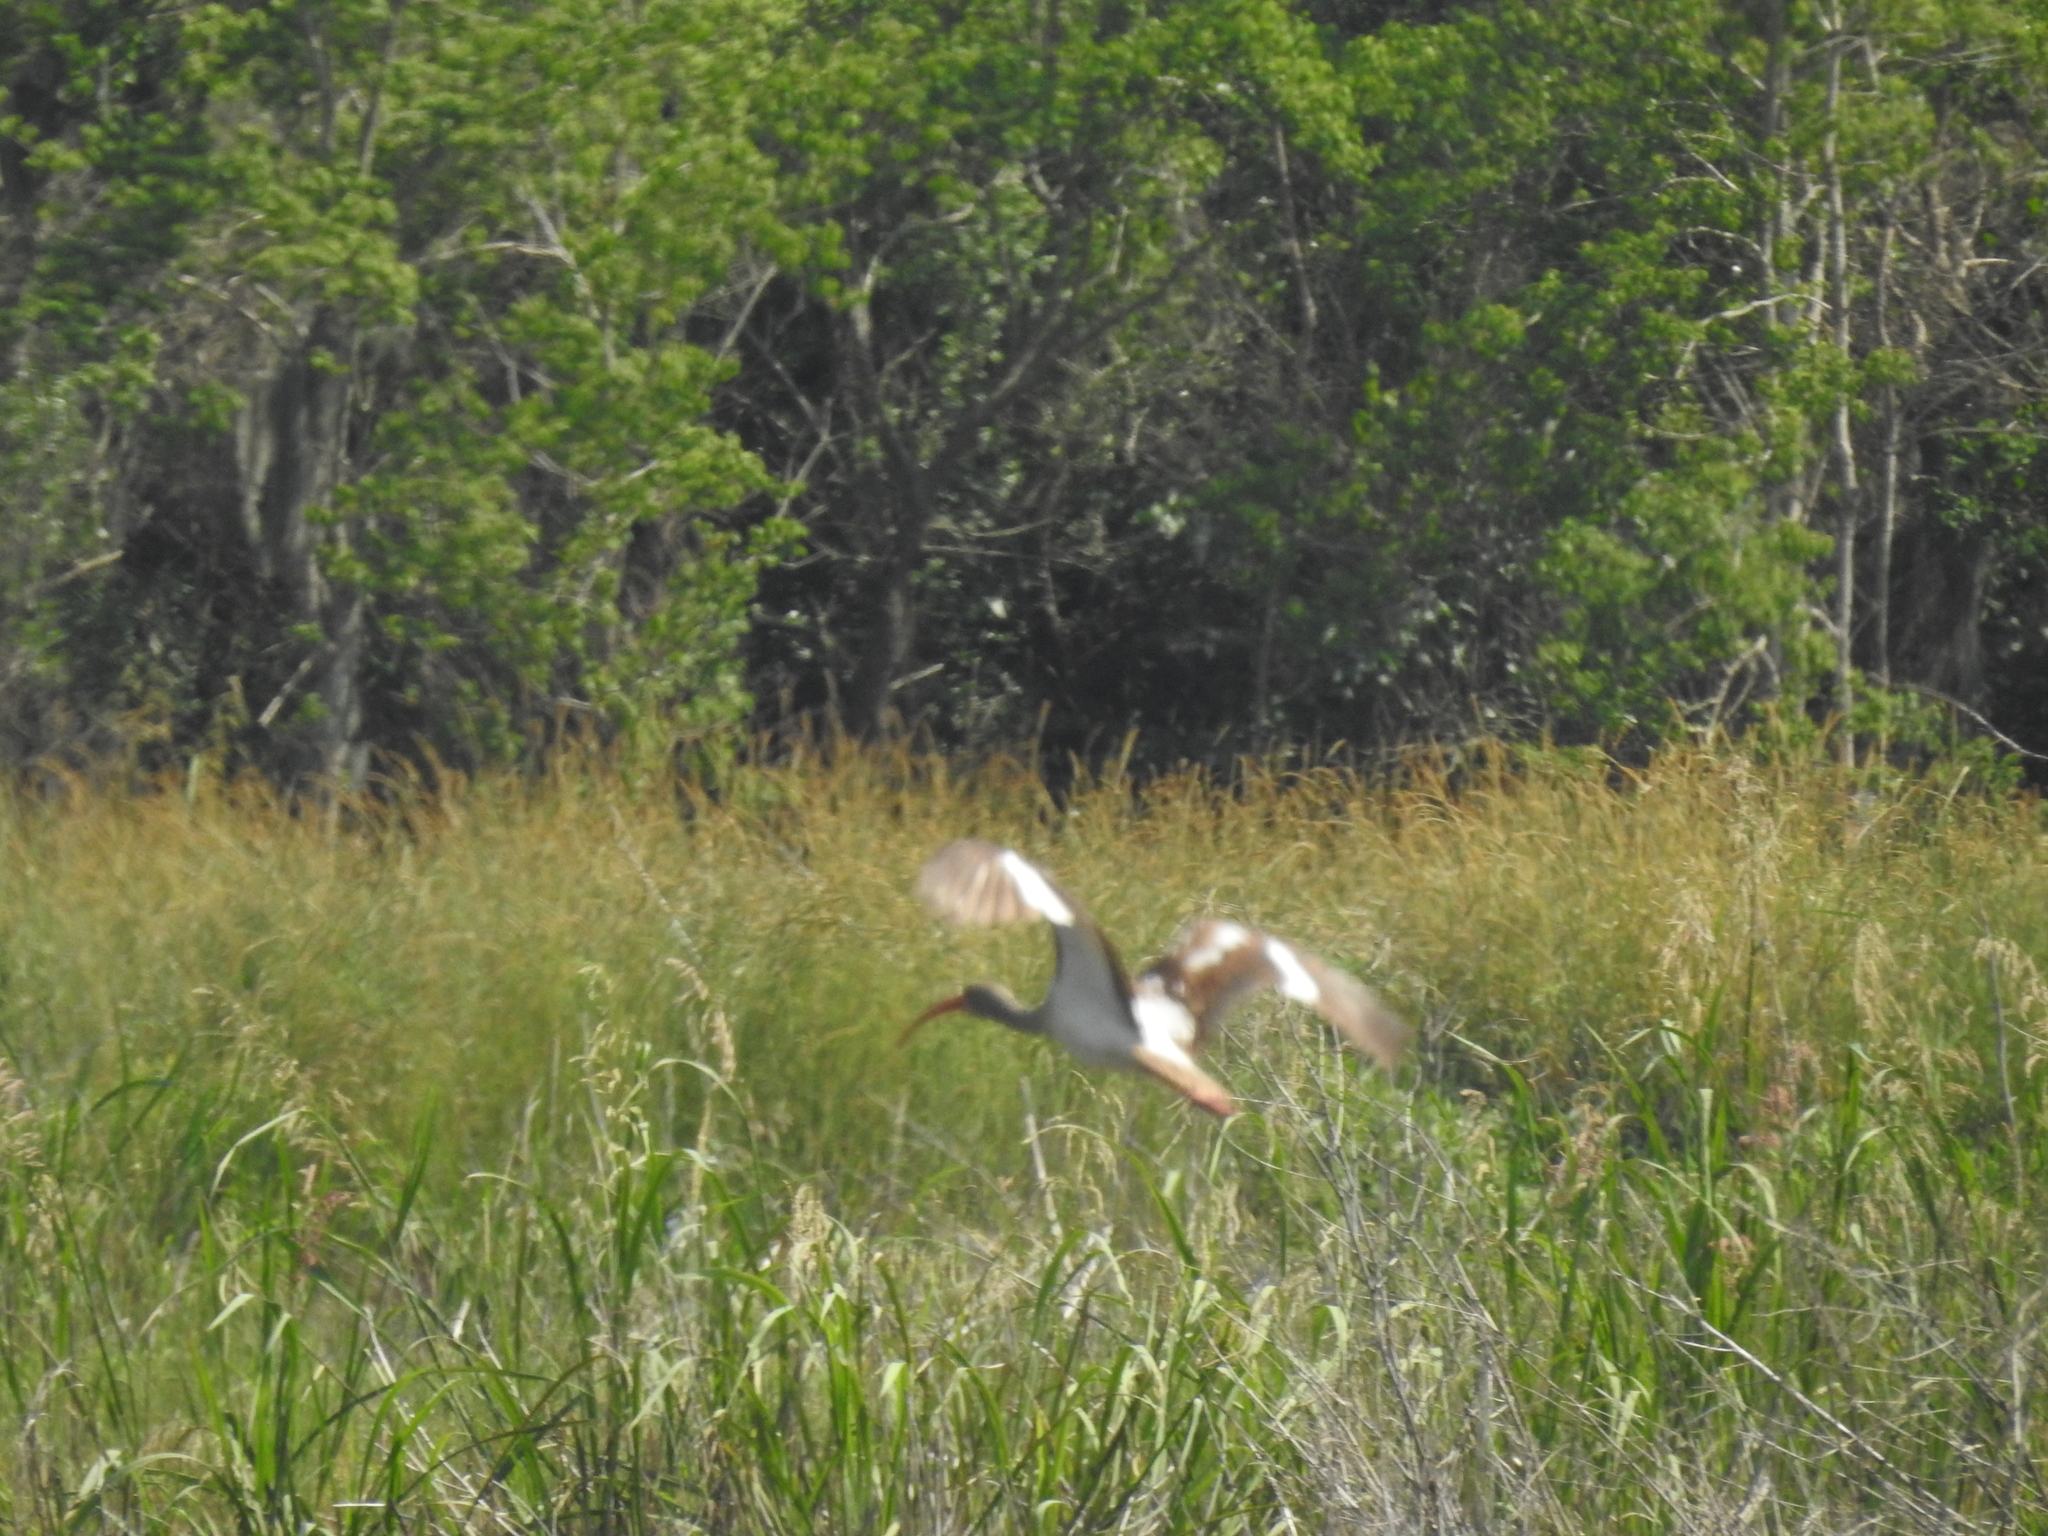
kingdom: Animalia
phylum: Chordata
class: Aves
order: Pelecaniformes
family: Threskiornithidae
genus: Eudocimus
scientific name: Eudocimus albus
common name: White ibis
